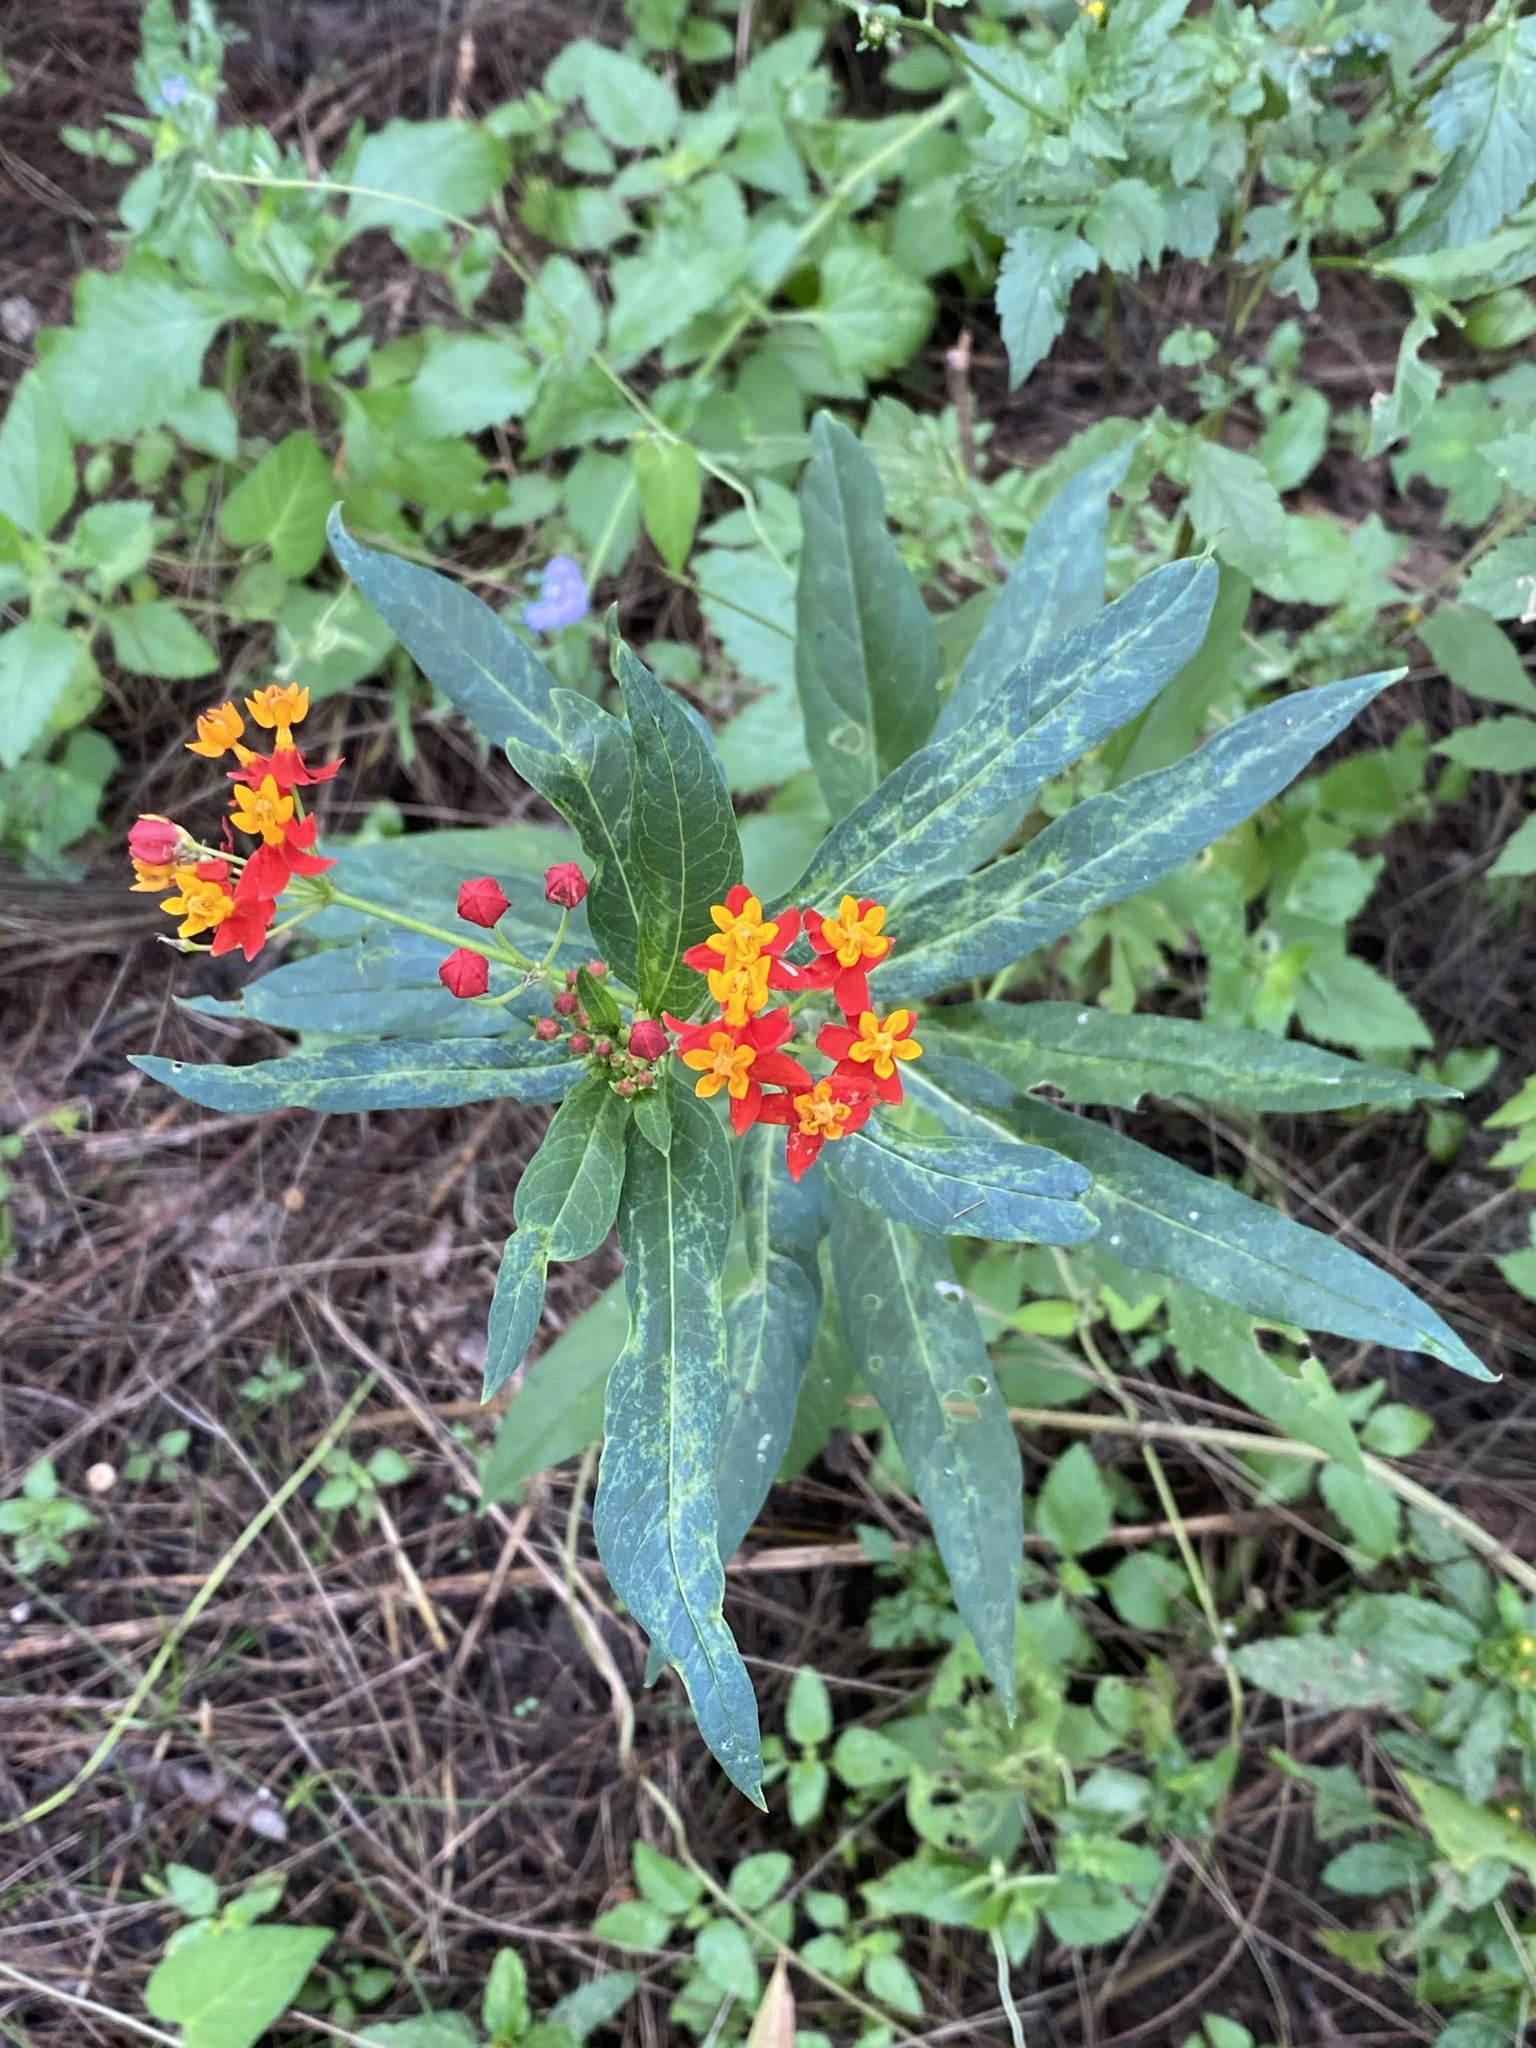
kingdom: Plantae
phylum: Tracheophyta
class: Magnoliopsida
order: Gentianales
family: Apocynaceae
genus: Asclepias
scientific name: Asclepias curassavica
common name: Bloodflower
